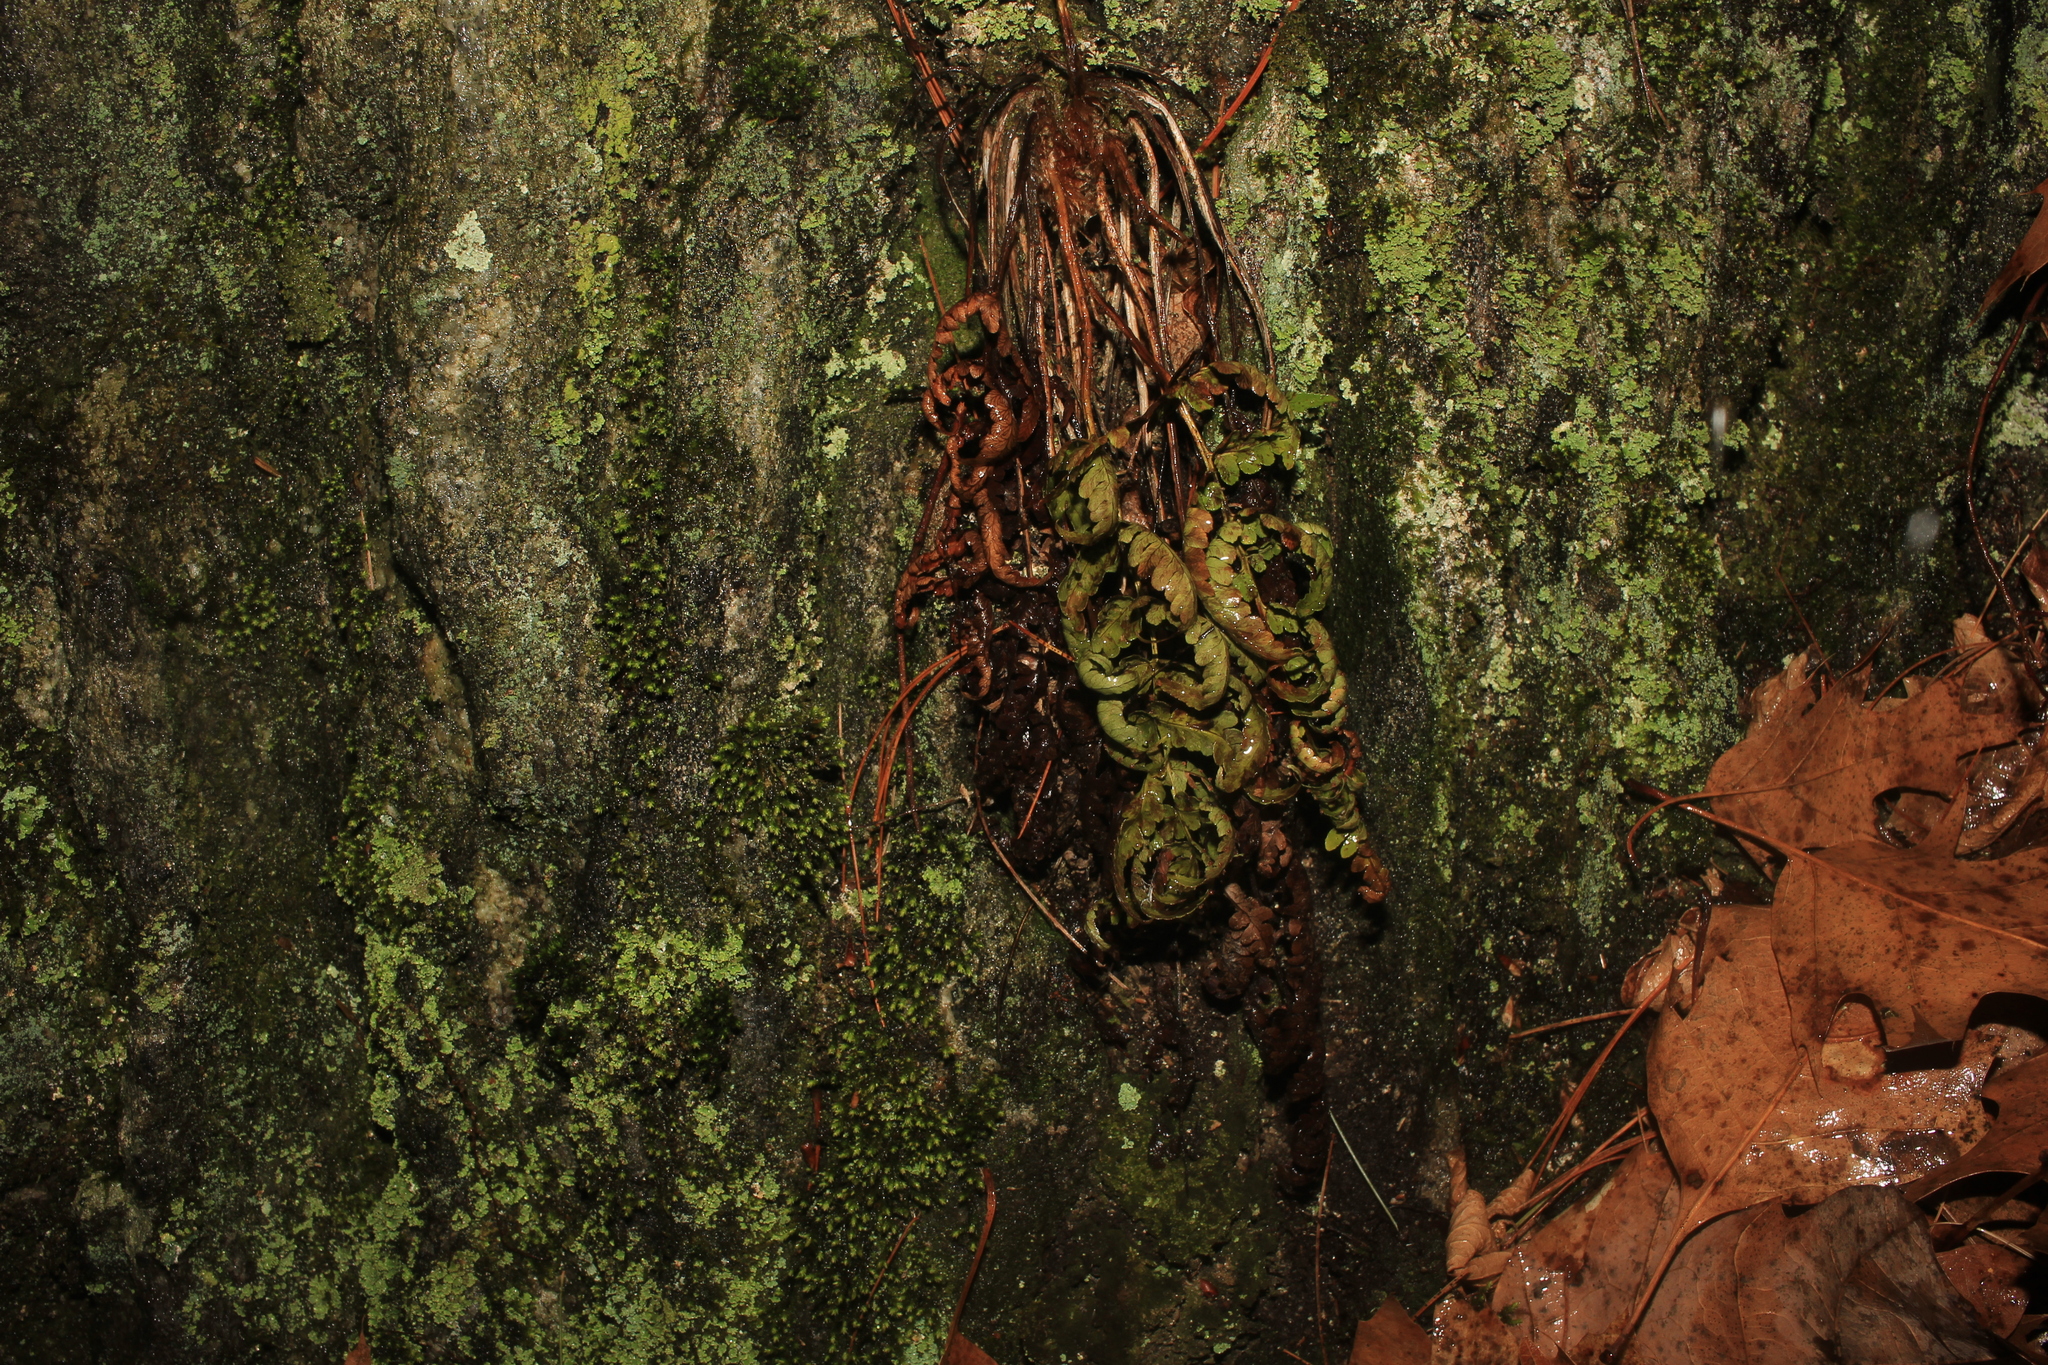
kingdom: Plantae
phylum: Tracheophyta
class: Polypodiopsida
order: Polypodiales
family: Dryopteridaceae
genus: Dryopteris
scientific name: Dryopteris marginalis
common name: Marginal wood fern
